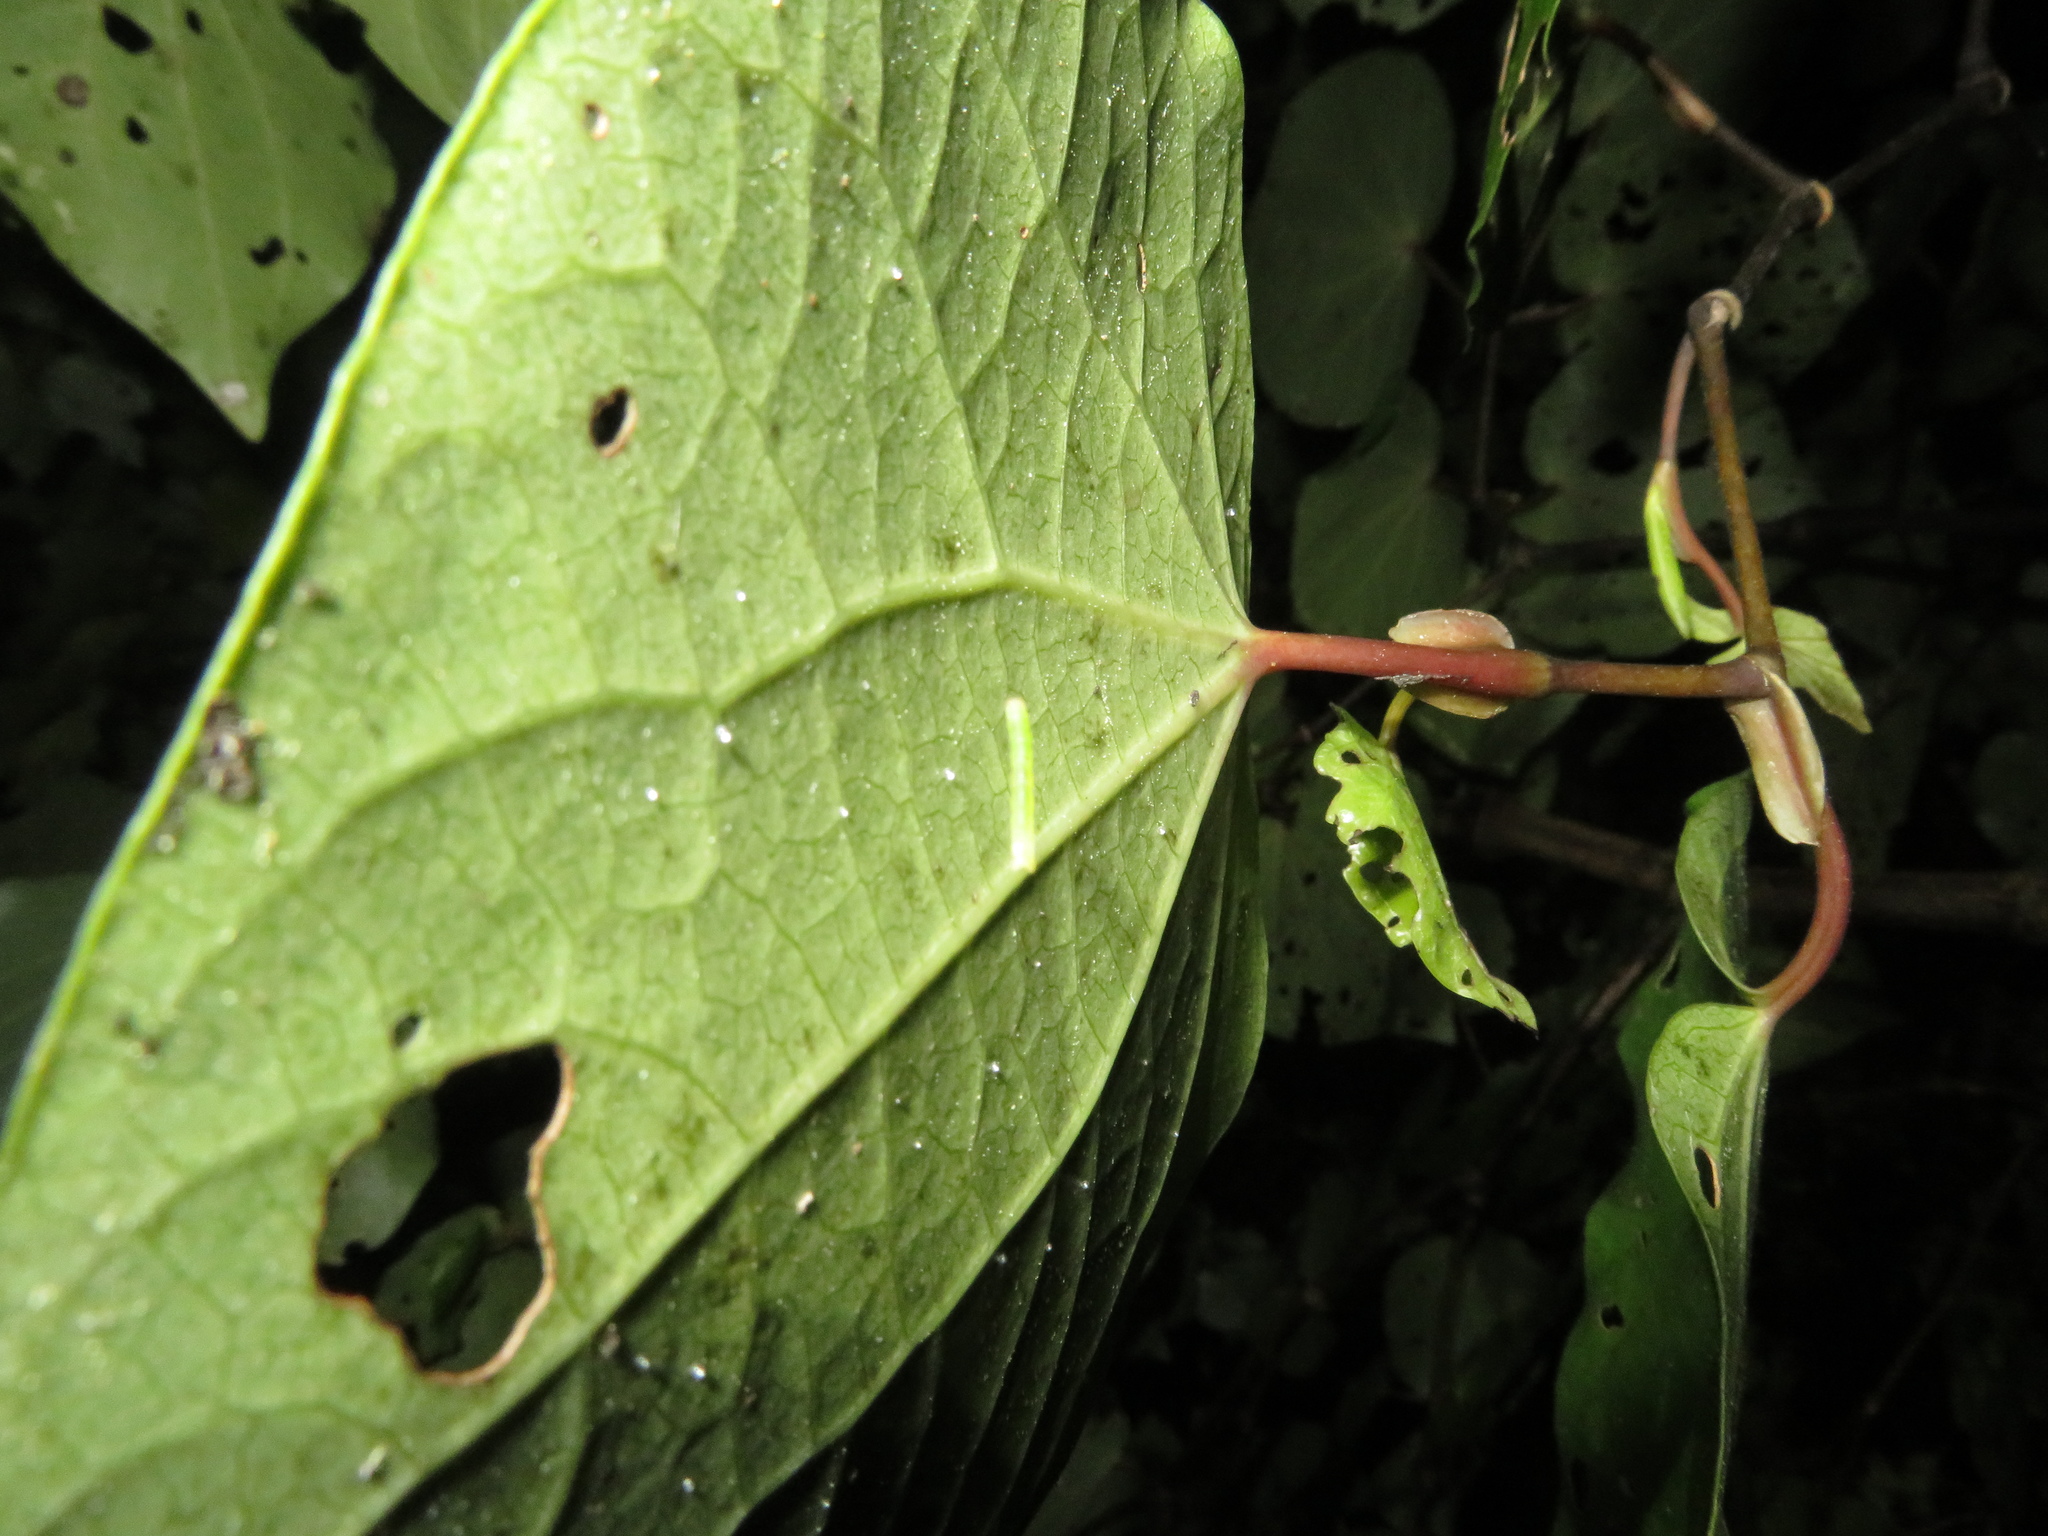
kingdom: Animalia
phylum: Arthropoda
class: Insecta
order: Lepidoptera
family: Geometridae
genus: Cleora
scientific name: Cleora scriptaria
